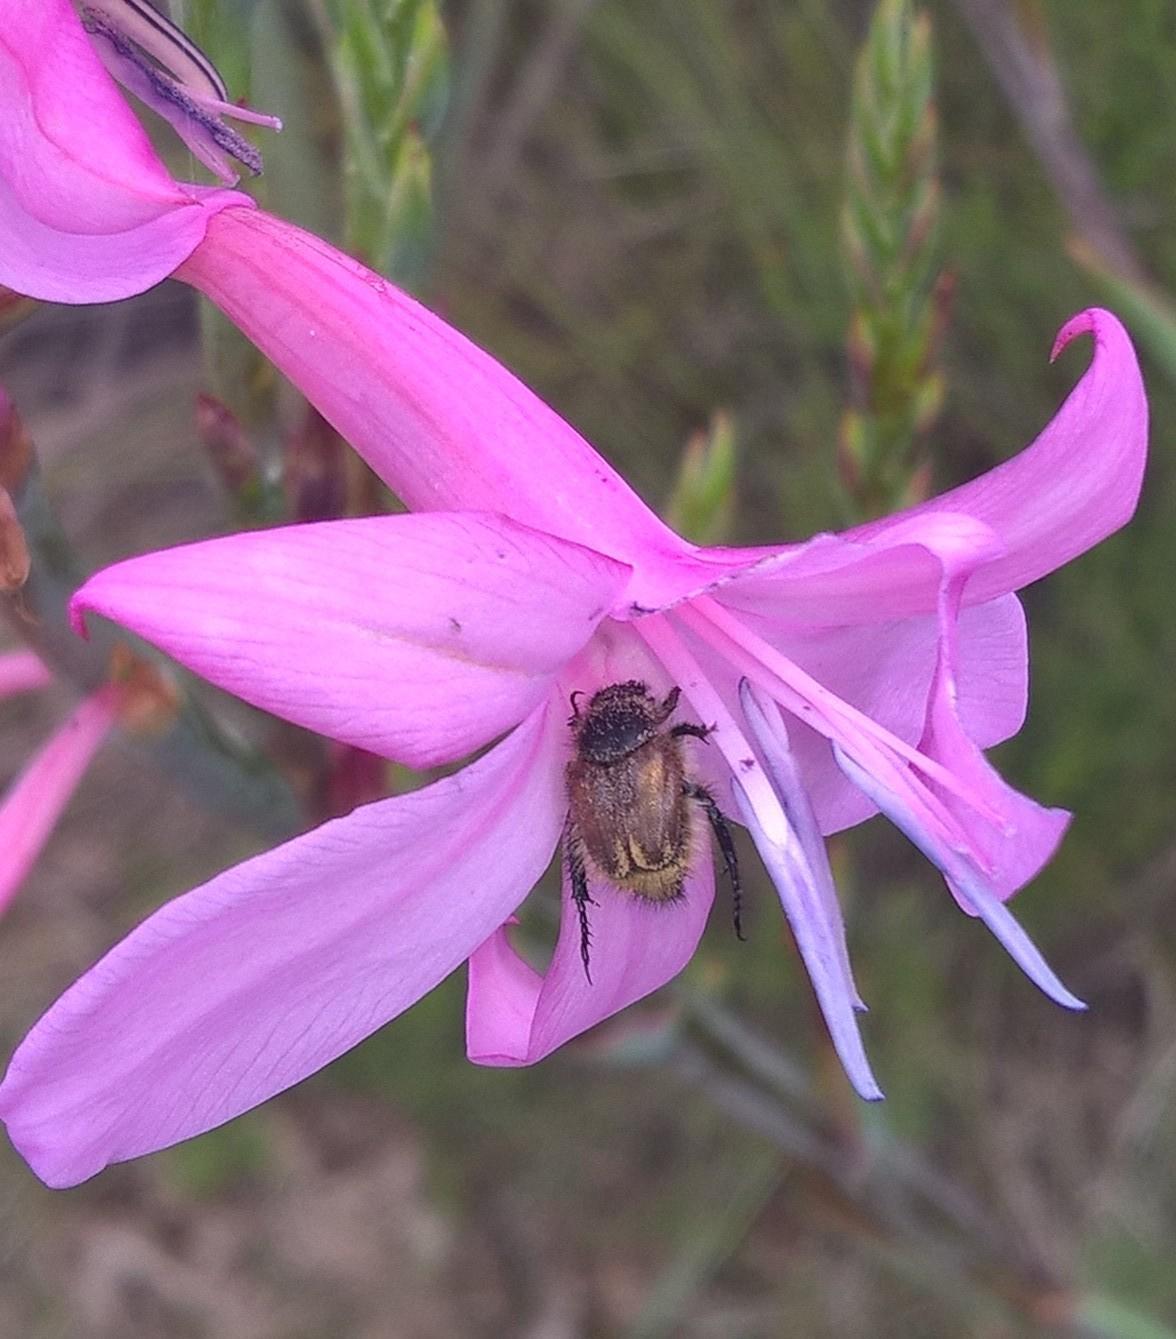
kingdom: Plantae
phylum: Tracheophyta
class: Liliopsida
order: Asparagales
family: Iridaceae
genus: Watsonia
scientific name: Watsonia fourcadei
